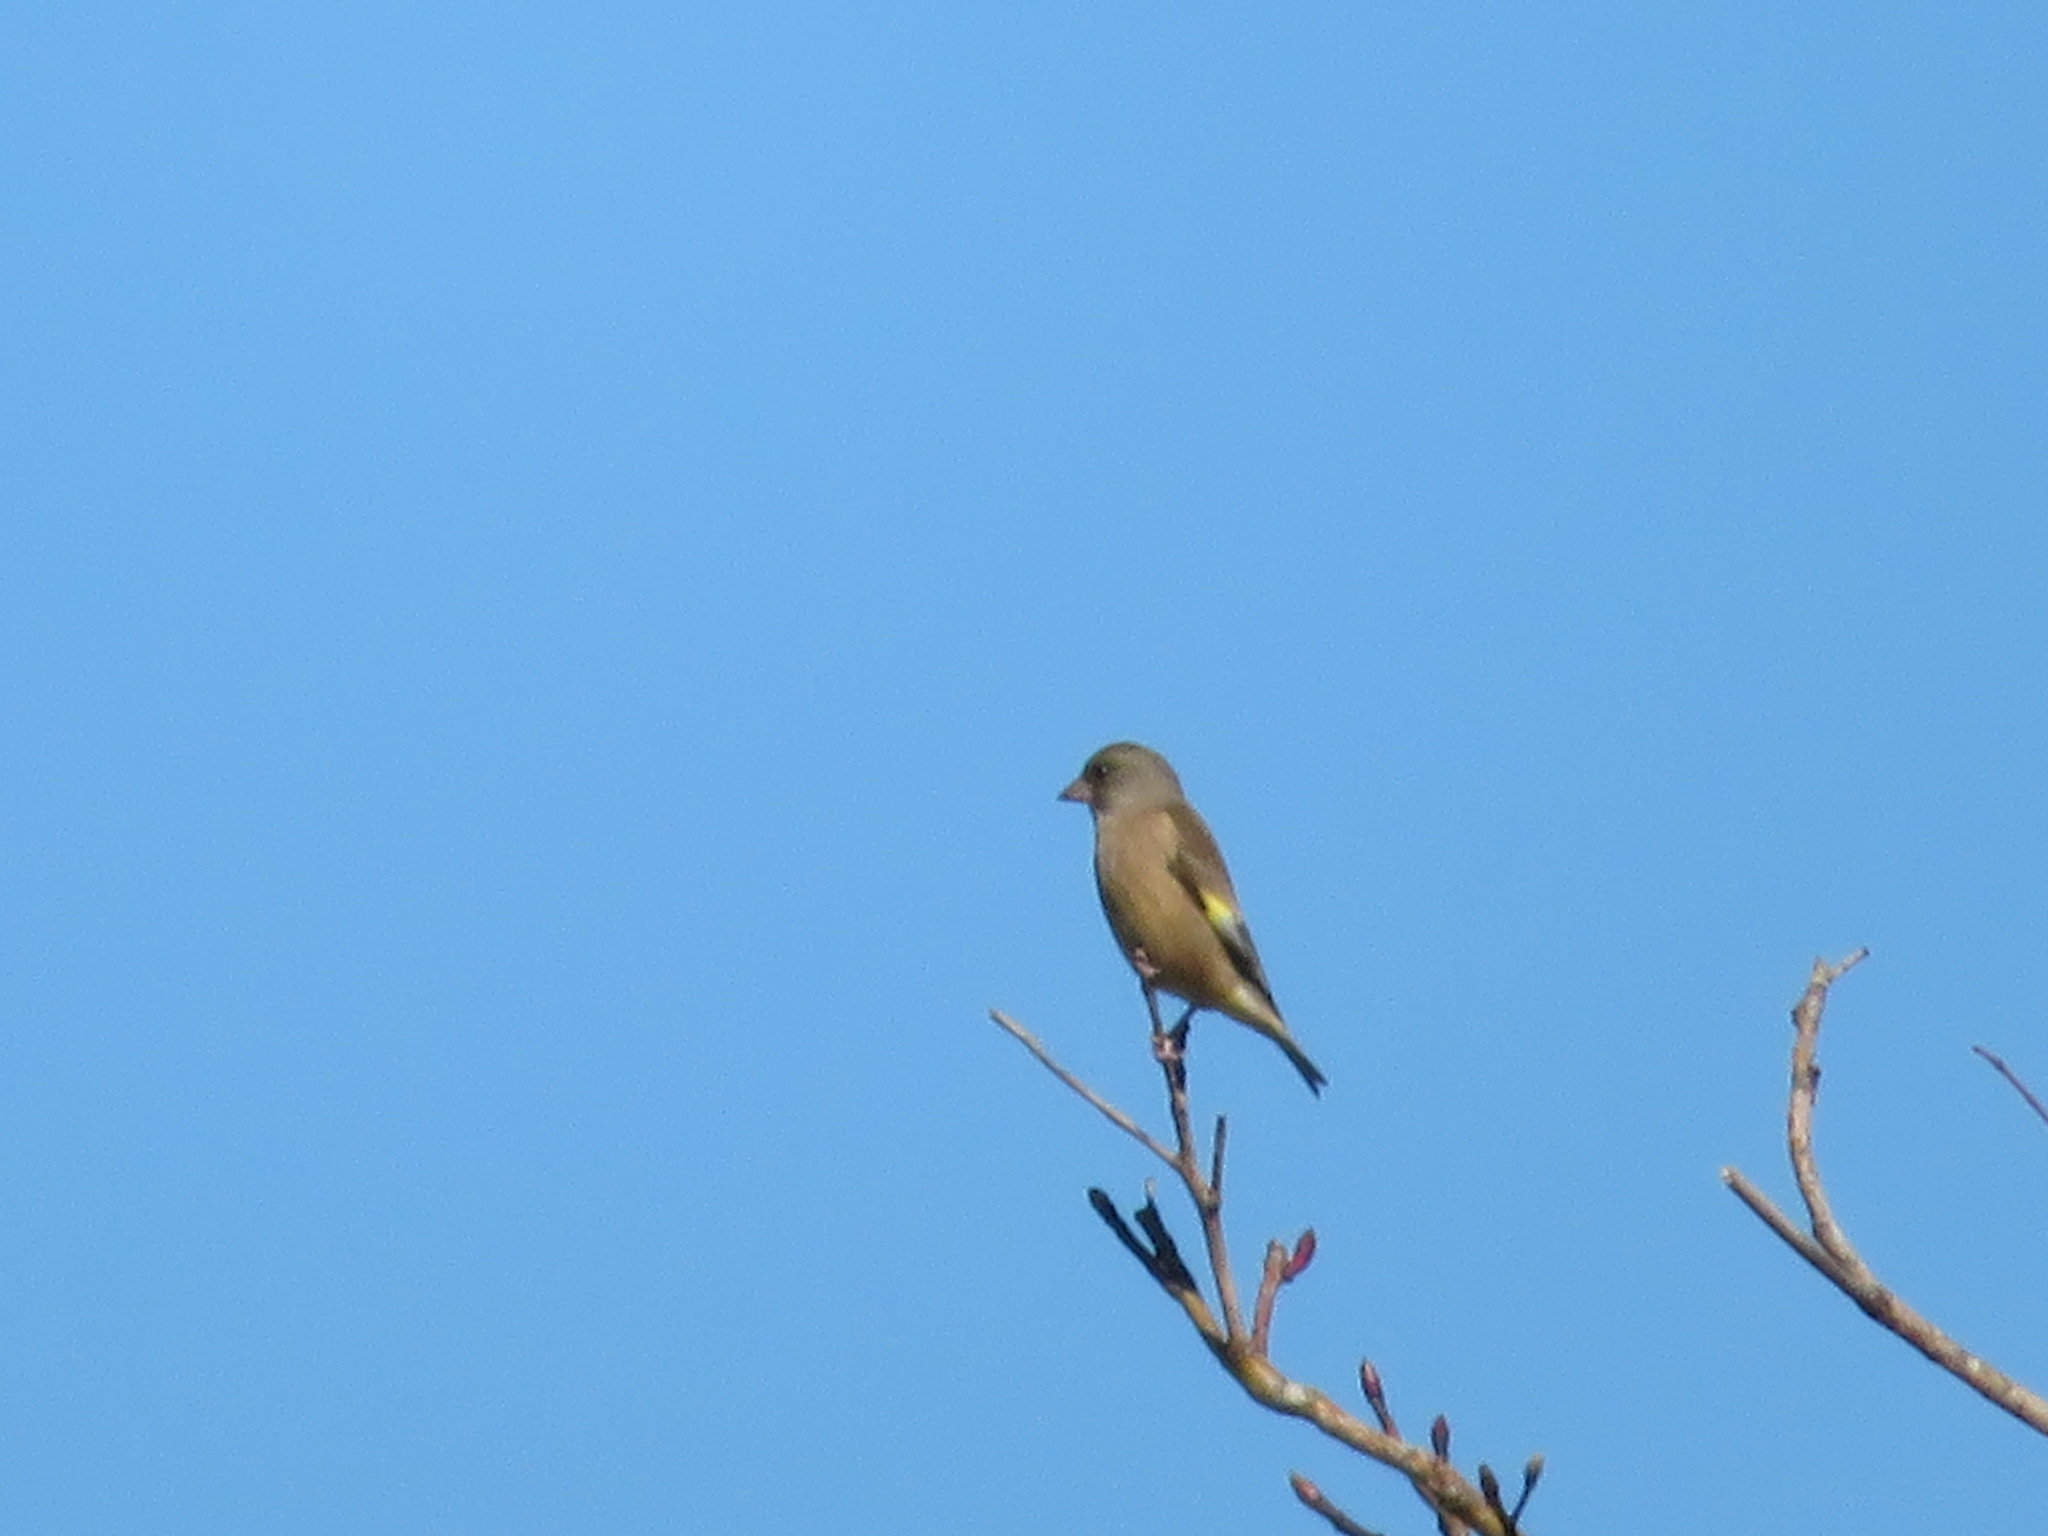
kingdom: Plantae
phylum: Tracheophyta
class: Liliopsida
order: Poales
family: Poaceae
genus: Chloris
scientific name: Chloris sinica
